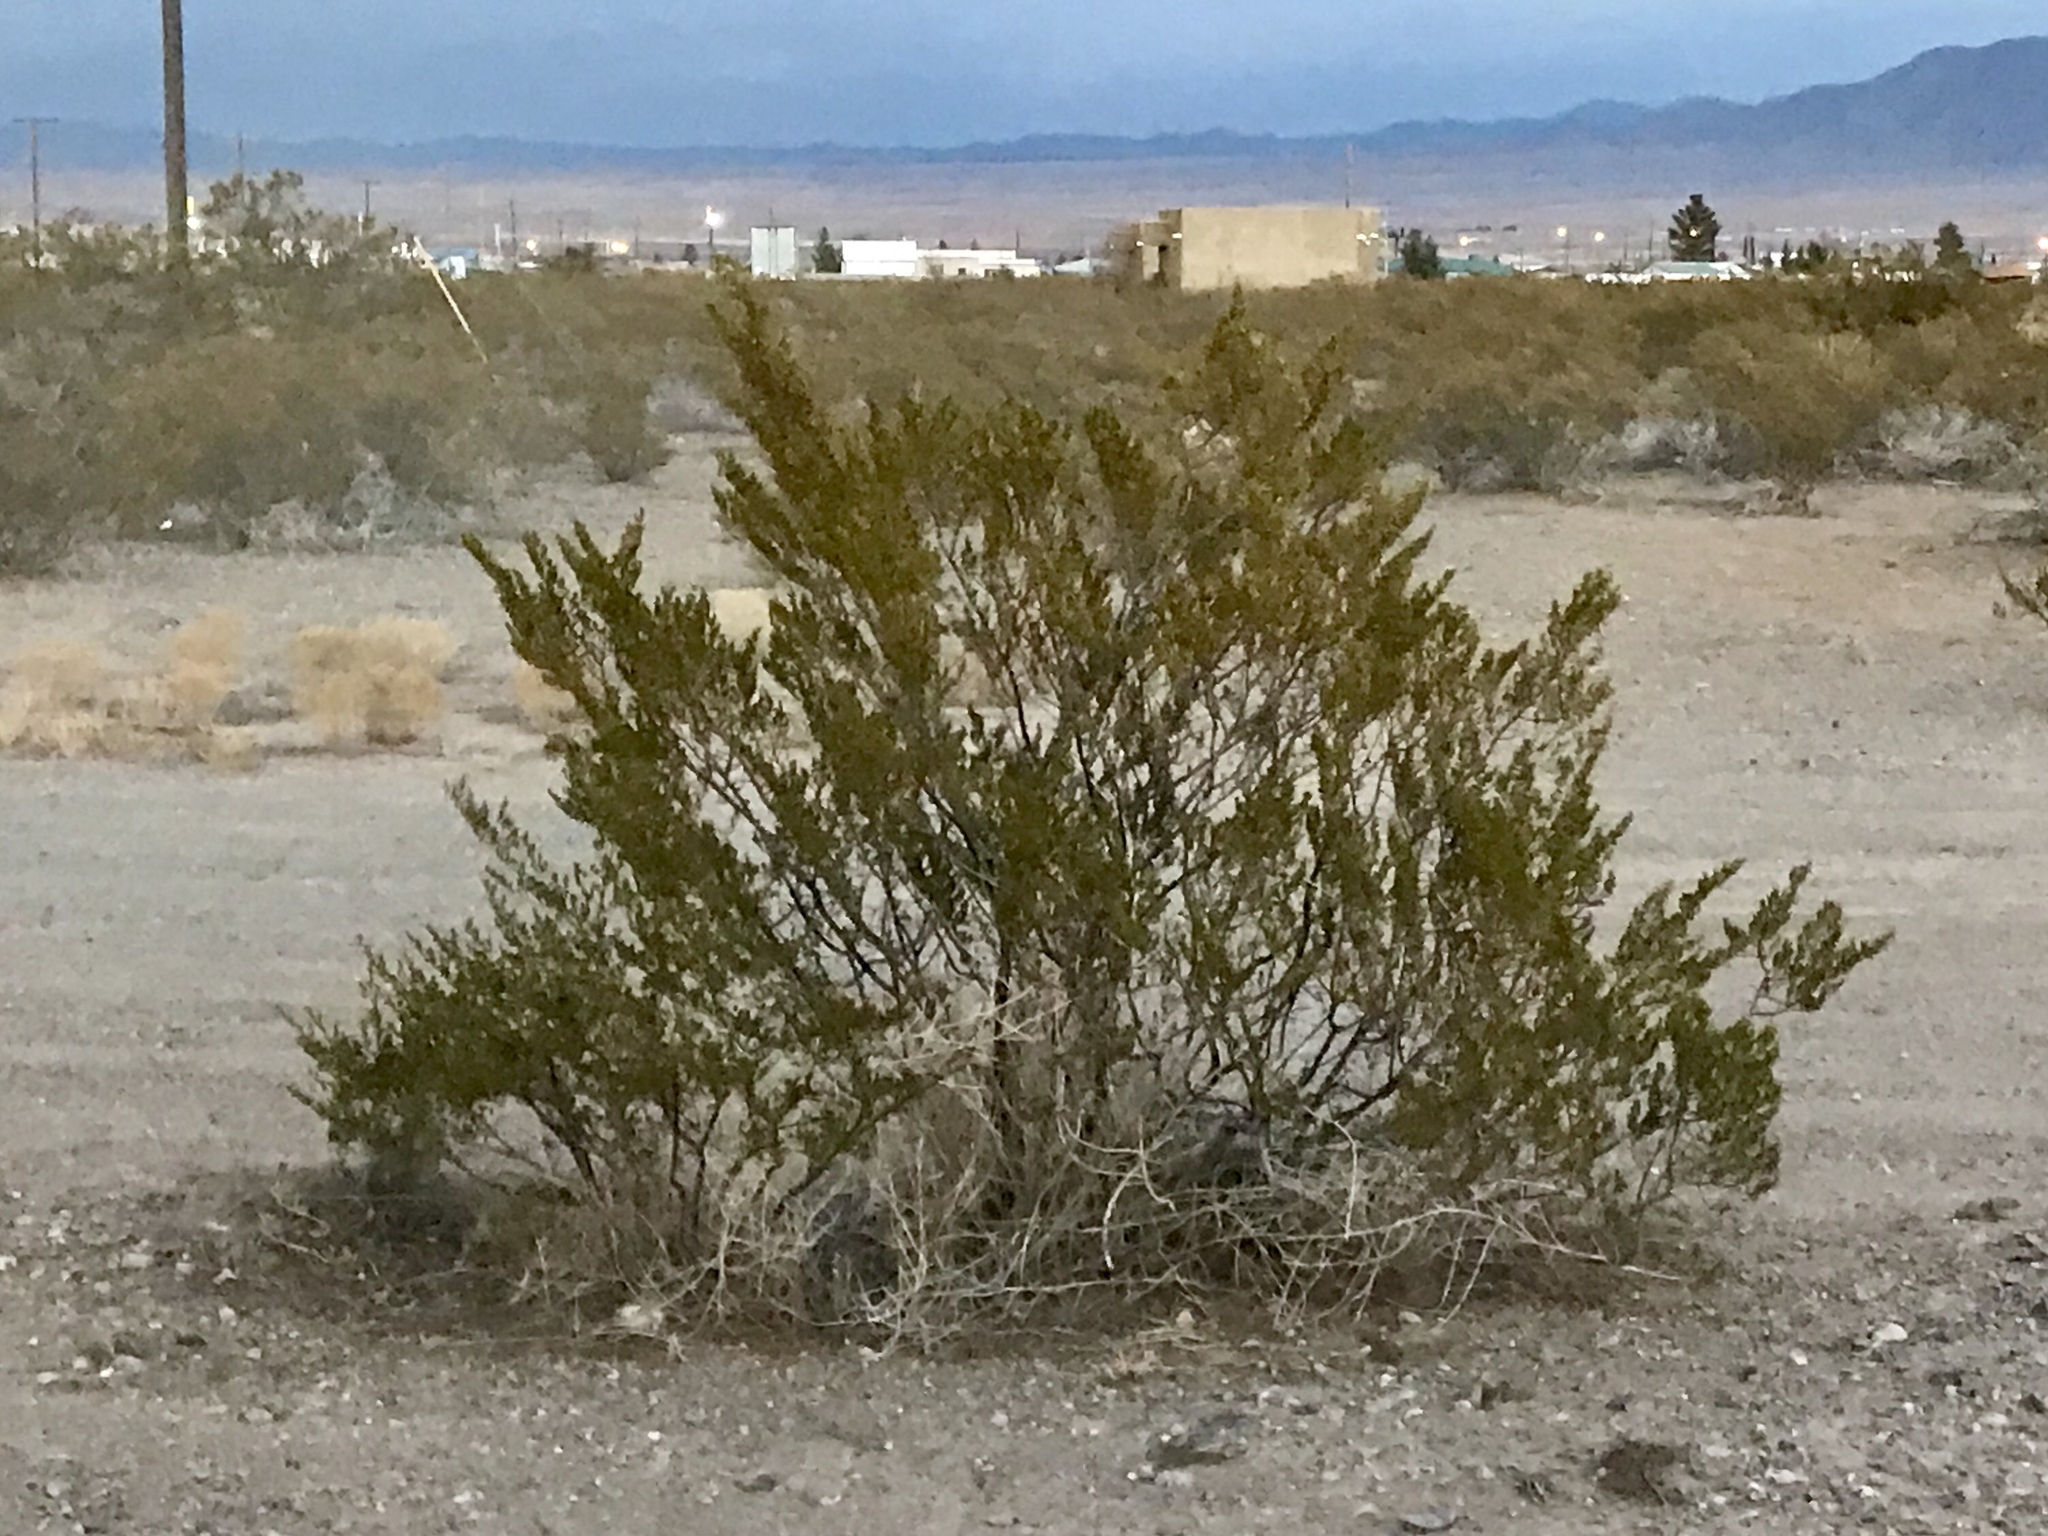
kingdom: Plantae
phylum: Tracheophyta
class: Magnoliopsida
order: Zygophyllales
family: Zygophyllaceae
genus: Larrea
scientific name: Larrea tridentata
